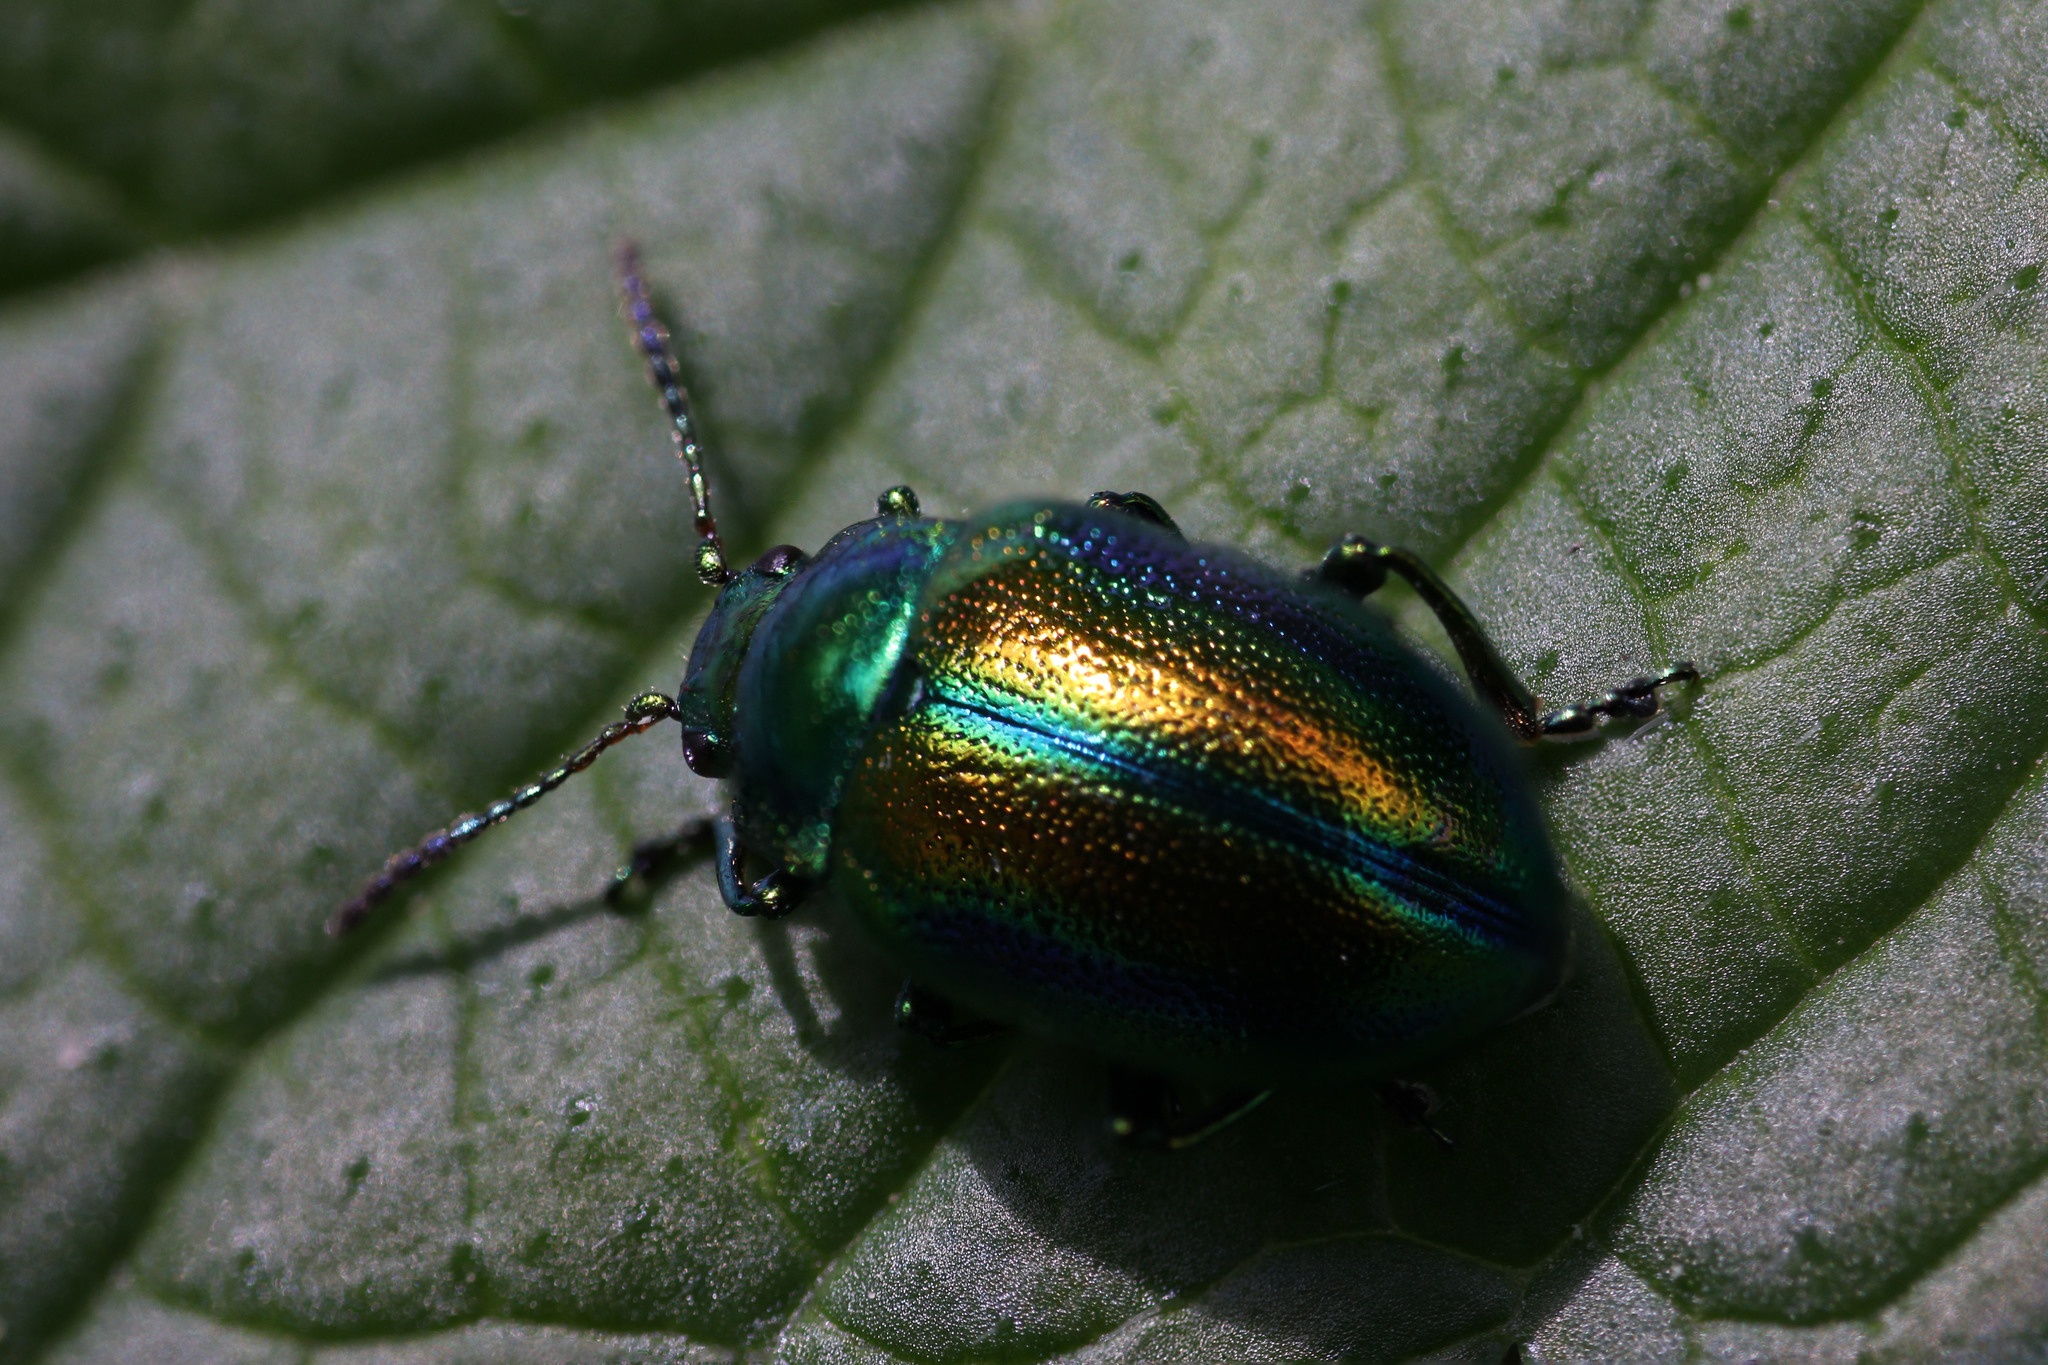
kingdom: Animalia
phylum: Arthropoda
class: Insecta
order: Coleoptera
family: Chrysomelidae
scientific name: Chrysomelidae
